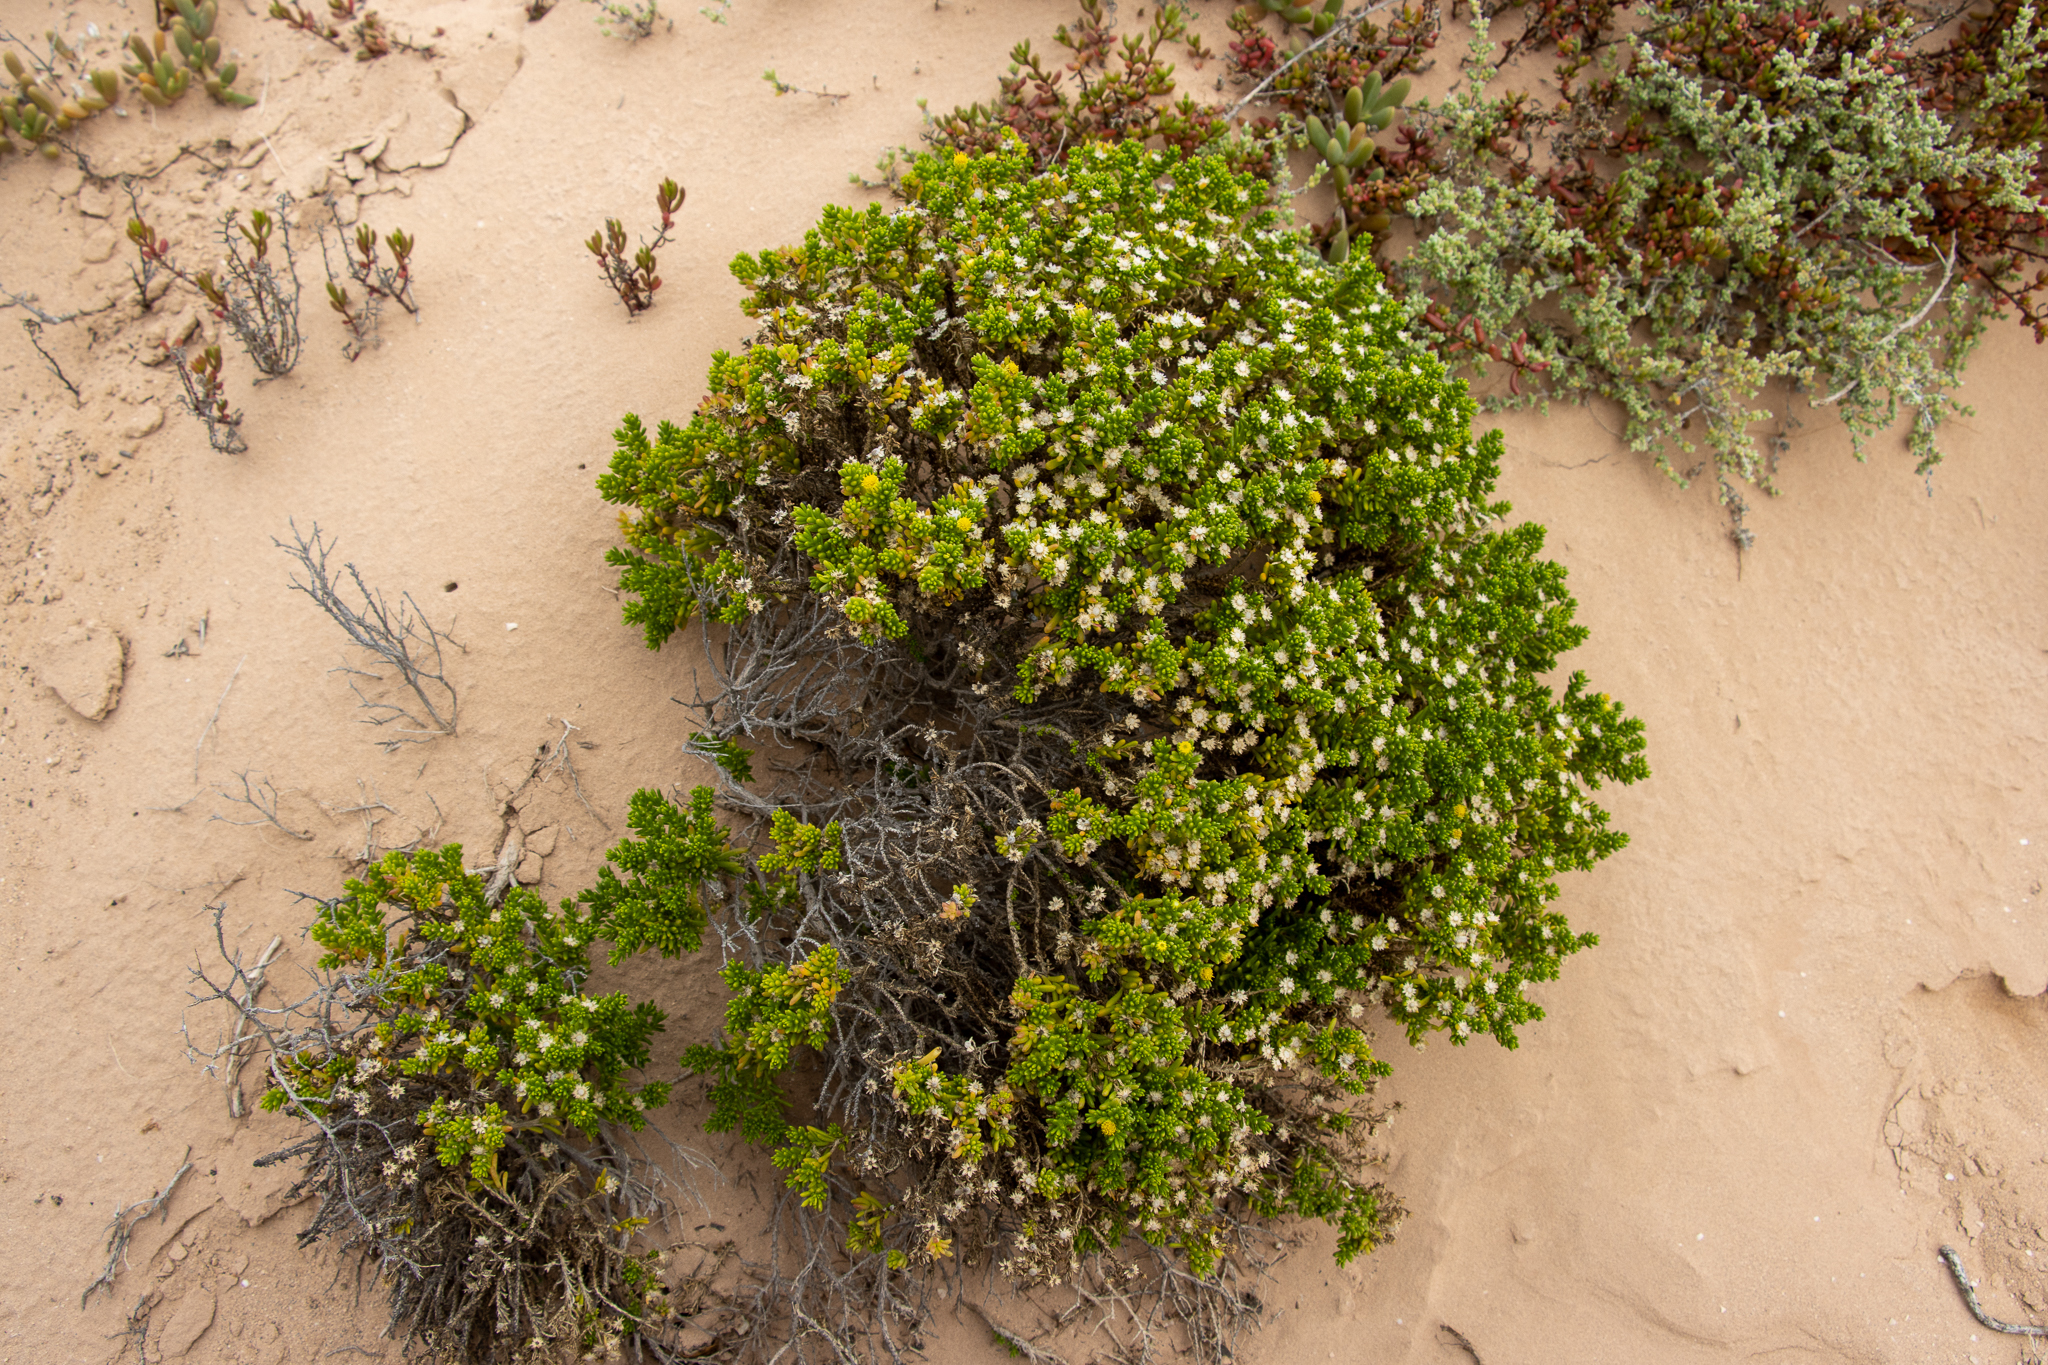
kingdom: Plantae
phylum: Tracheophyta
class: Magnoliopsida
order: Asterales
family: Asteraceae
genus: Kippistia
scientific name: Kippistia suaedifolia
